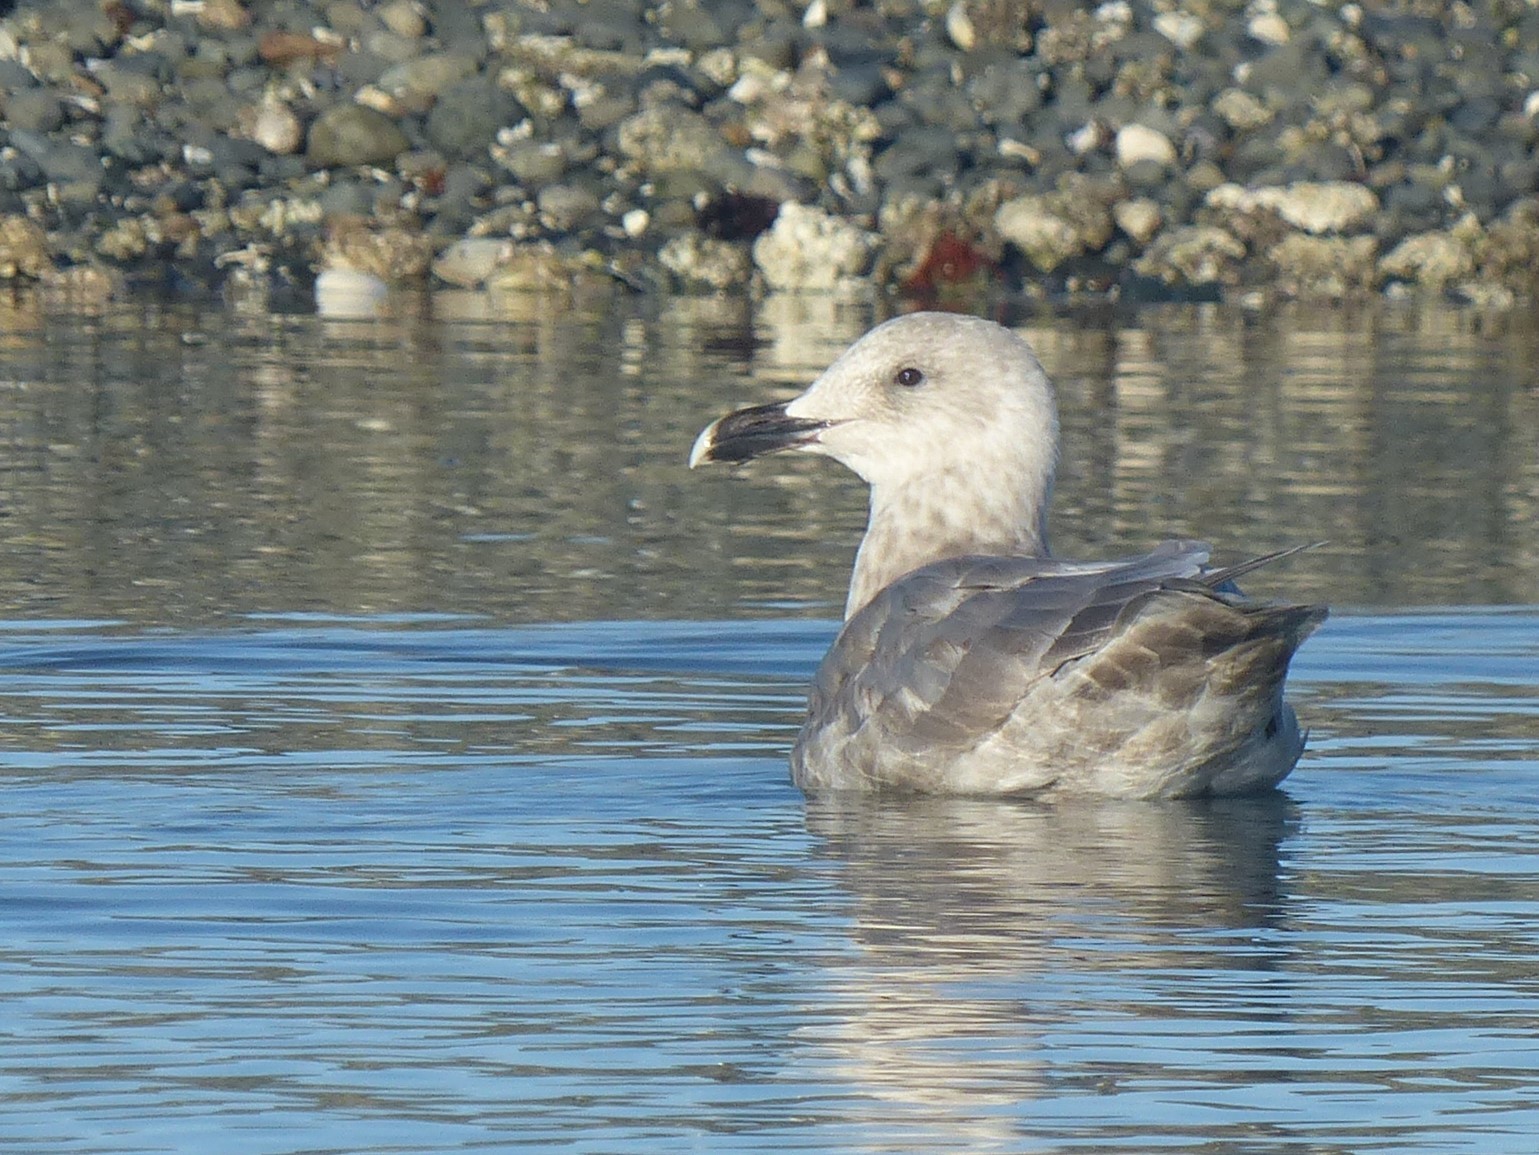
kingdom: Animalia
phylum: Chordata
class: Aves
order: Charadriiformes
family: Laridae
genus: Larus
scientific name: Larus
